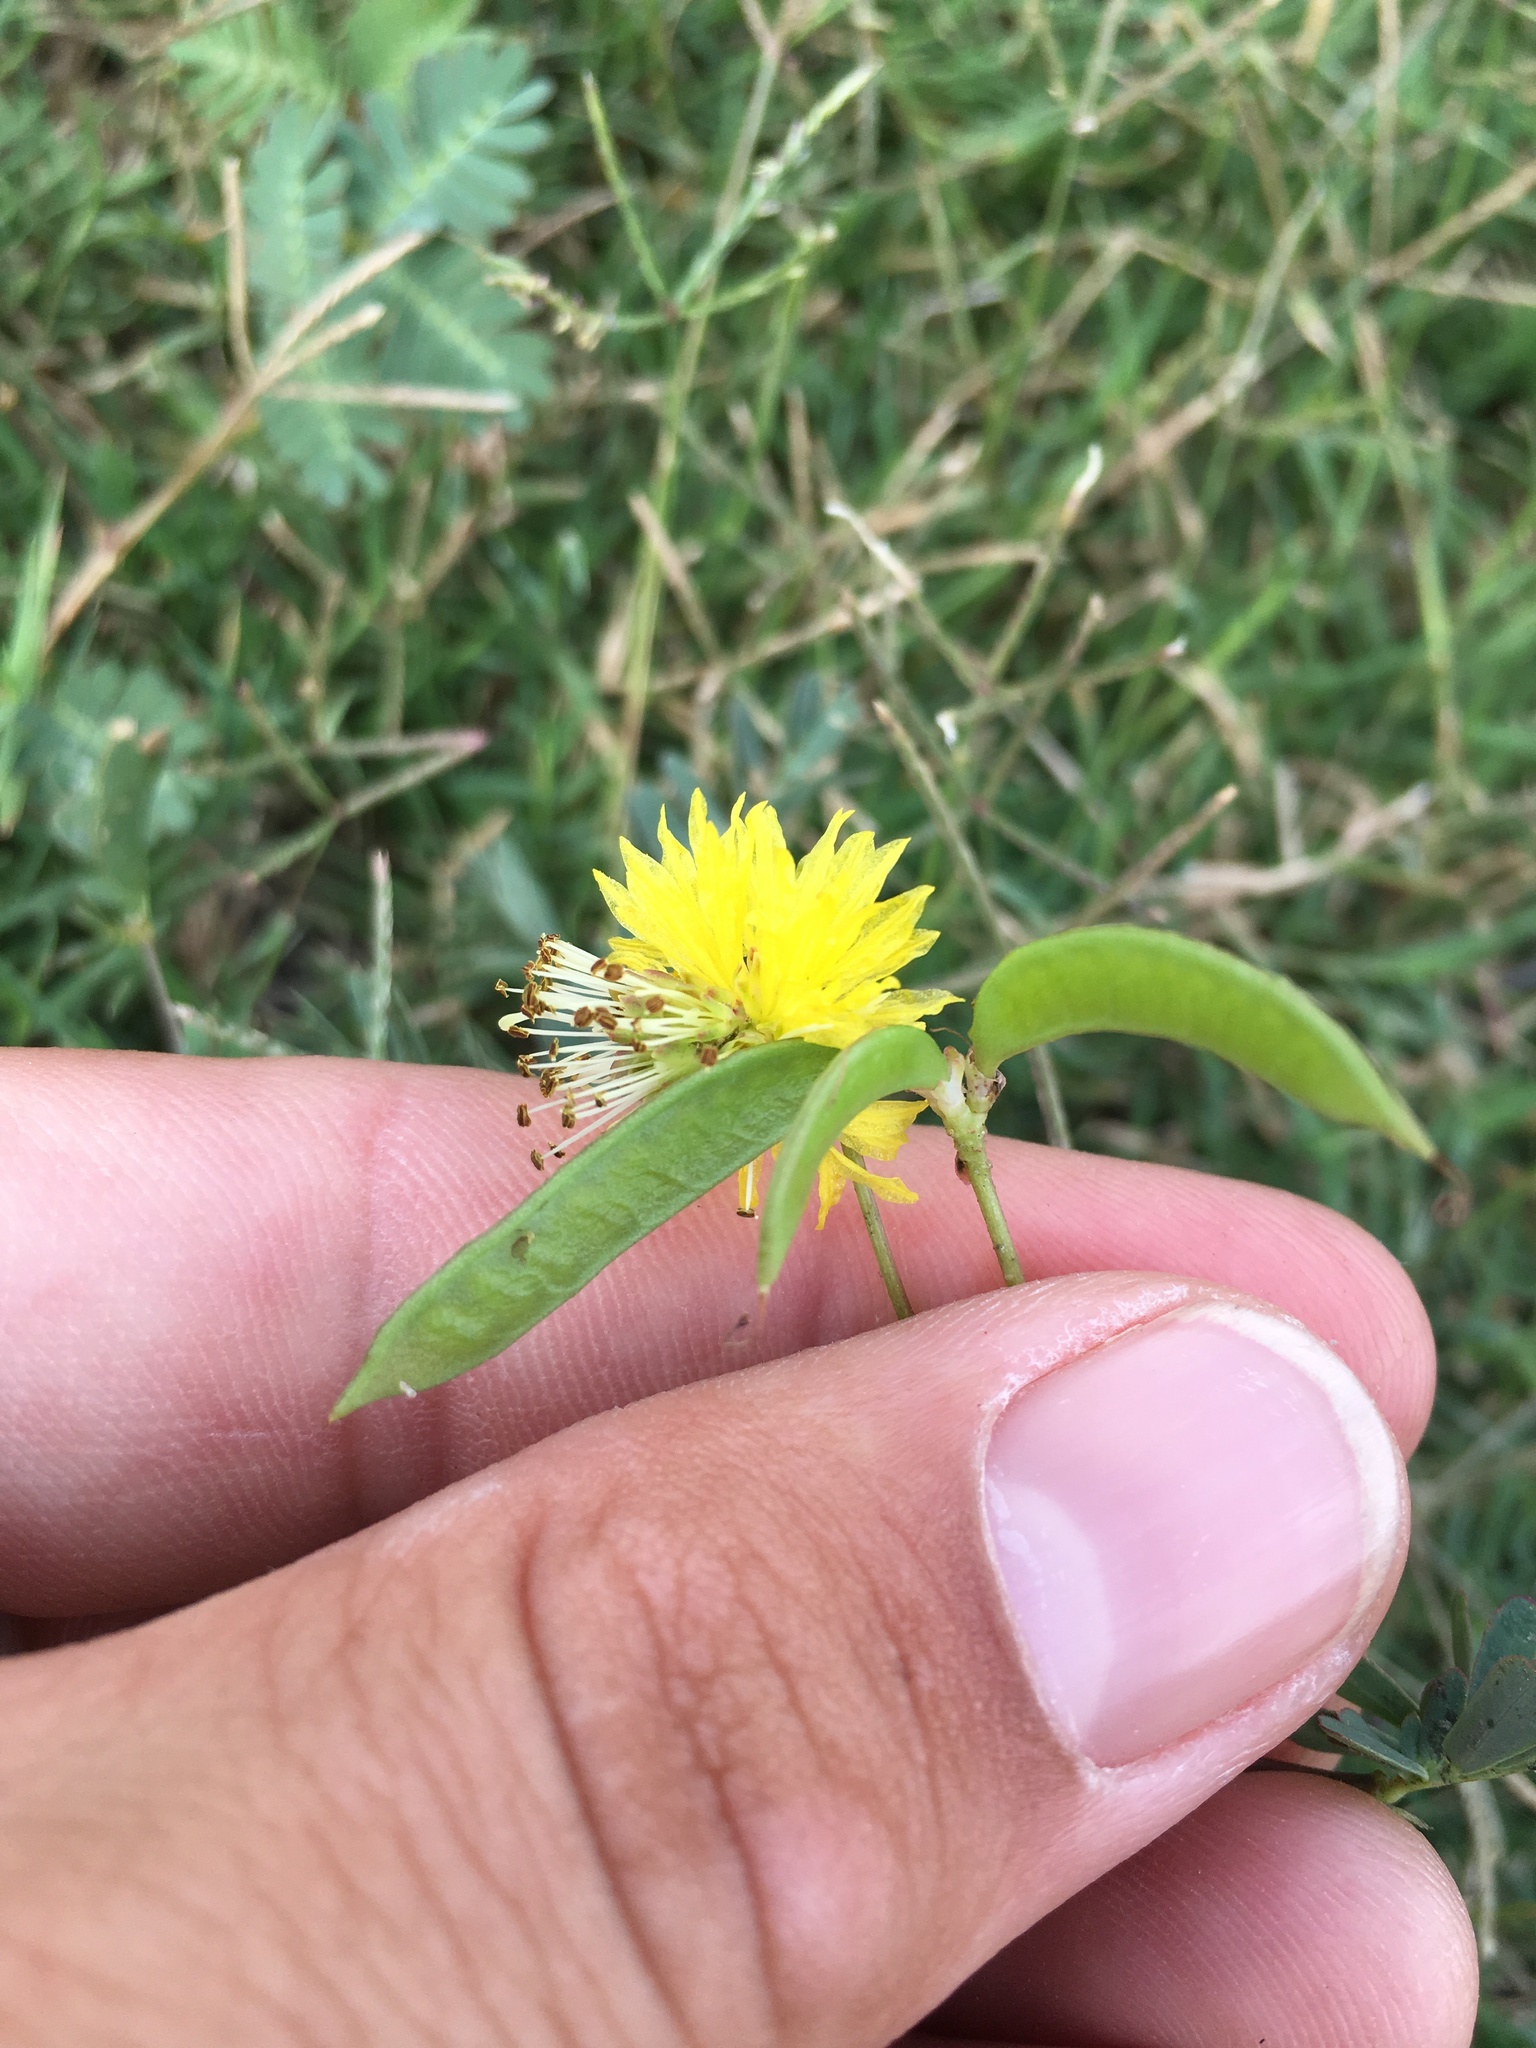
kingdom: Plantae
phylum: Tracheophyta
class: Magnoliopsida
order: Fabales
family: Fabaceae
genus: Neptunia
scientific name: Neptunia plena
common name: Dead and awake
